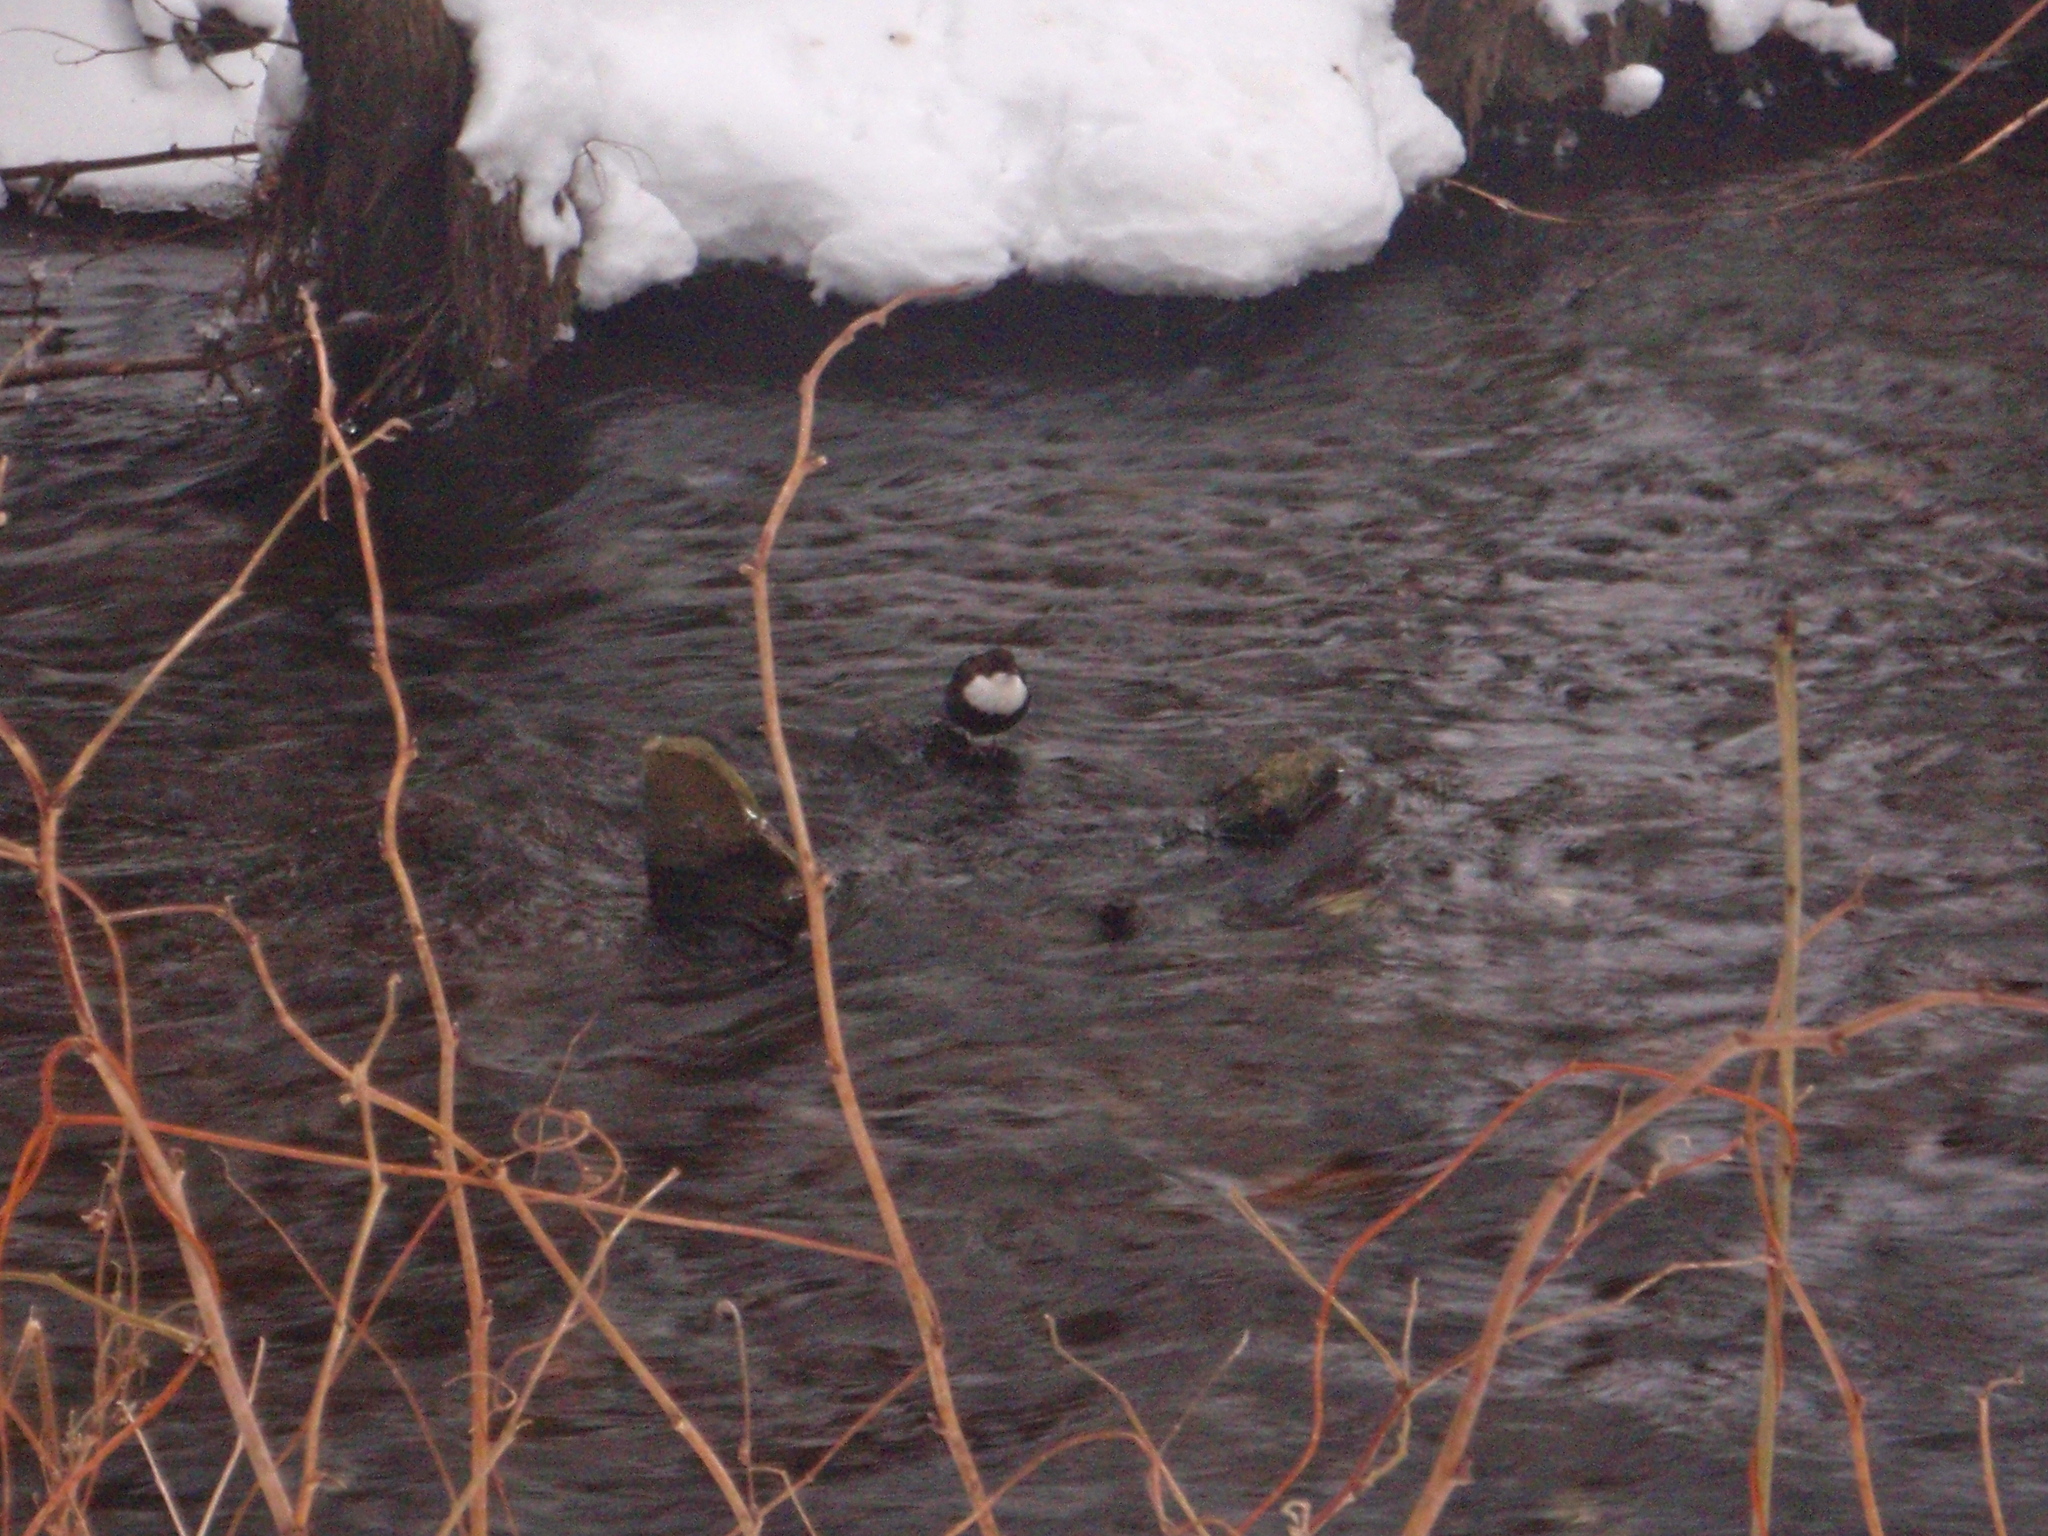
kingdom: Animalia
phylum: Chordata
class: Aves
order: Passeriformes
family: Cinclidae
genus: Cinclus
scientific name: Cinclus cinclus
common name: White-throated dipper
